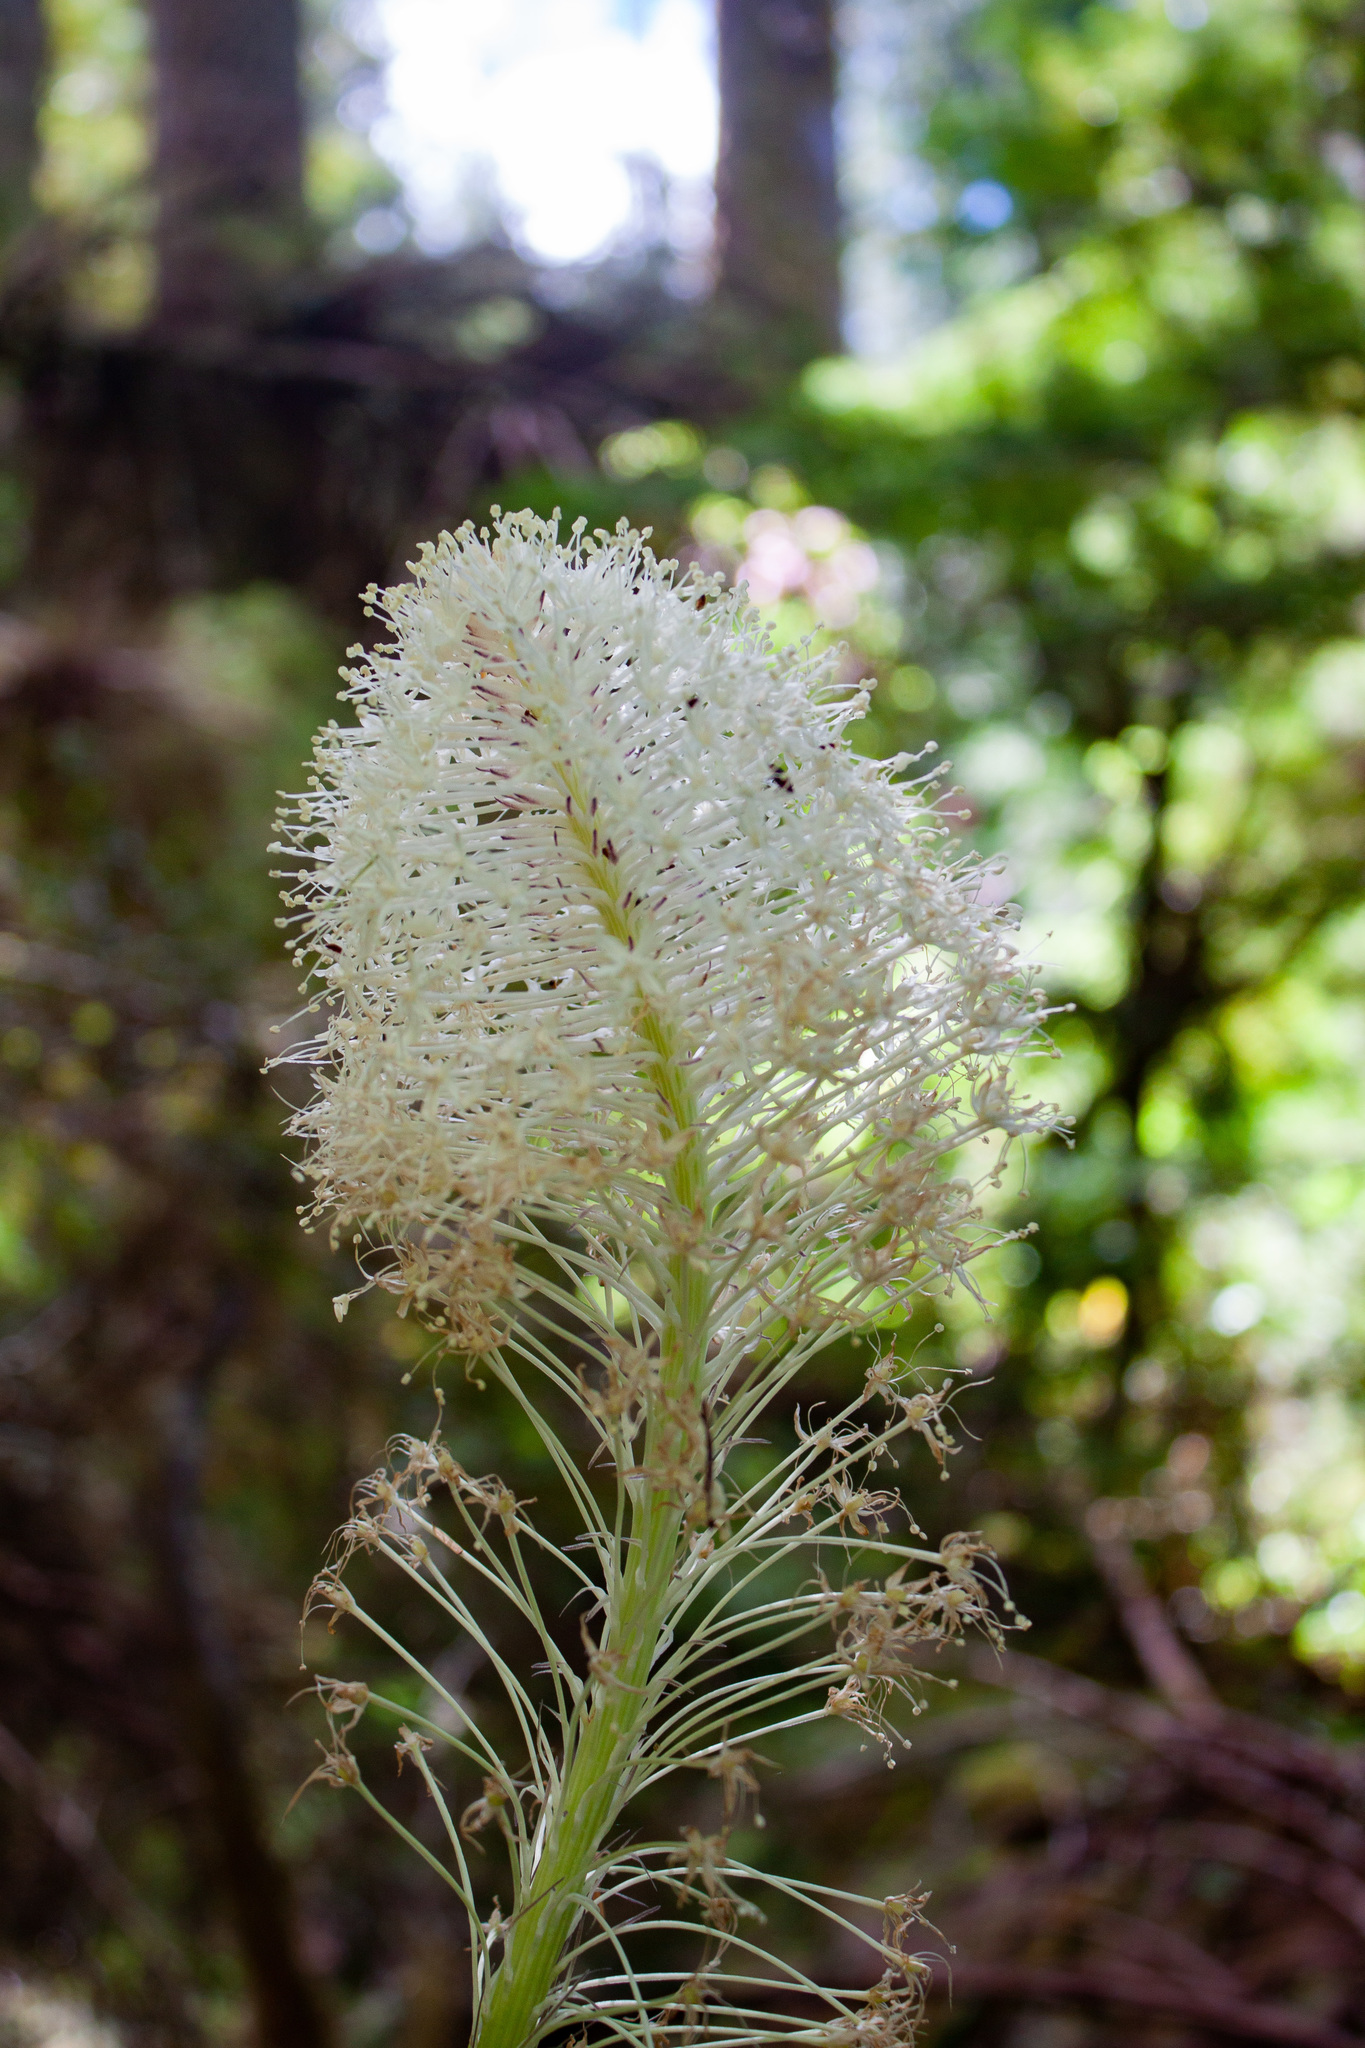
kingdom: Plantae
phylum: Tracheophyta
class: Liliopsida
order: Liliales
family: Melanthiaceae
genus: Xerophyllum
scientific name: Xerophyllum tenax
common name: Bear-grass
